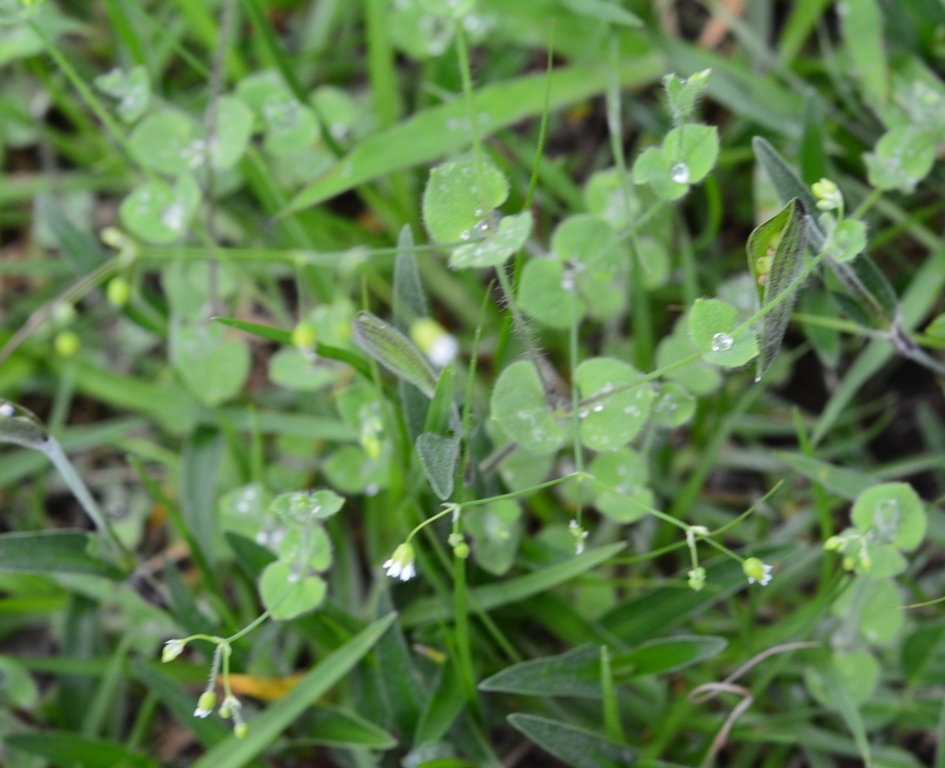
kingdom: Plantae
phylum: Tracheophyta
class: Magnoliopsida
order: Caryophyllales
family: Caryophyllaceae
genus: Drymaria
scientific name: Drymaria villosa
